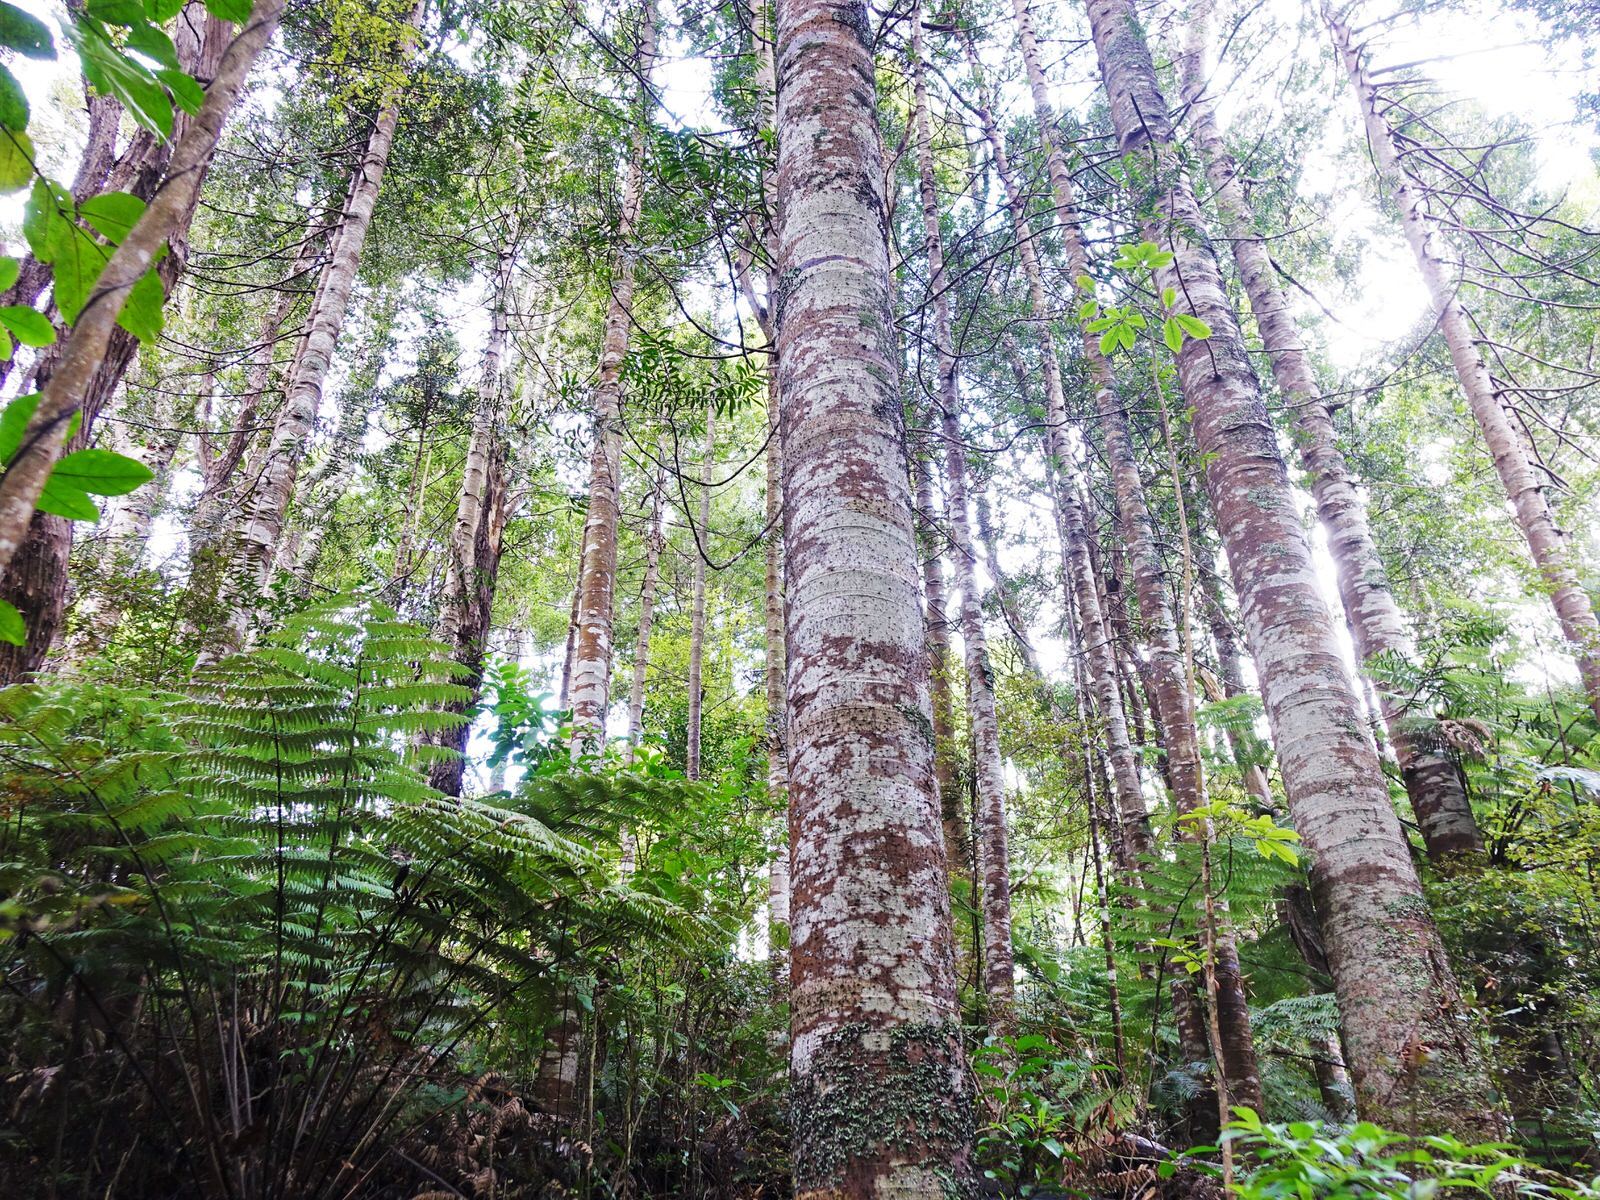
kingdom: Plantae
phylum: Tracheophyta
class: Pinopsida
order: Pinales
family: Araucariaceae
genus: Agathis
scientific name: Agathis australis
